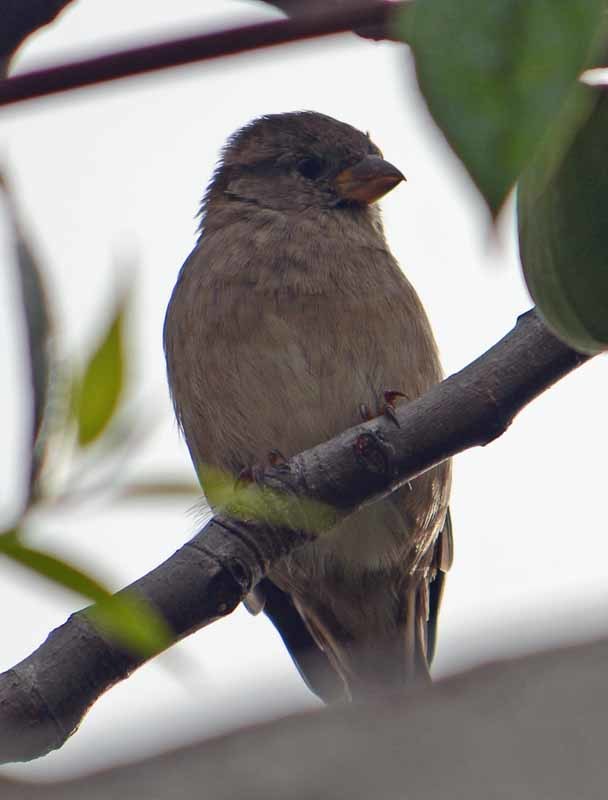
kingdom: Animalia
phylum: Chordata
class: Aves
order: Passeriformes
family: Passeridae
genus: Passer
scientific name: Passer domesticus
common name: House sparrow
